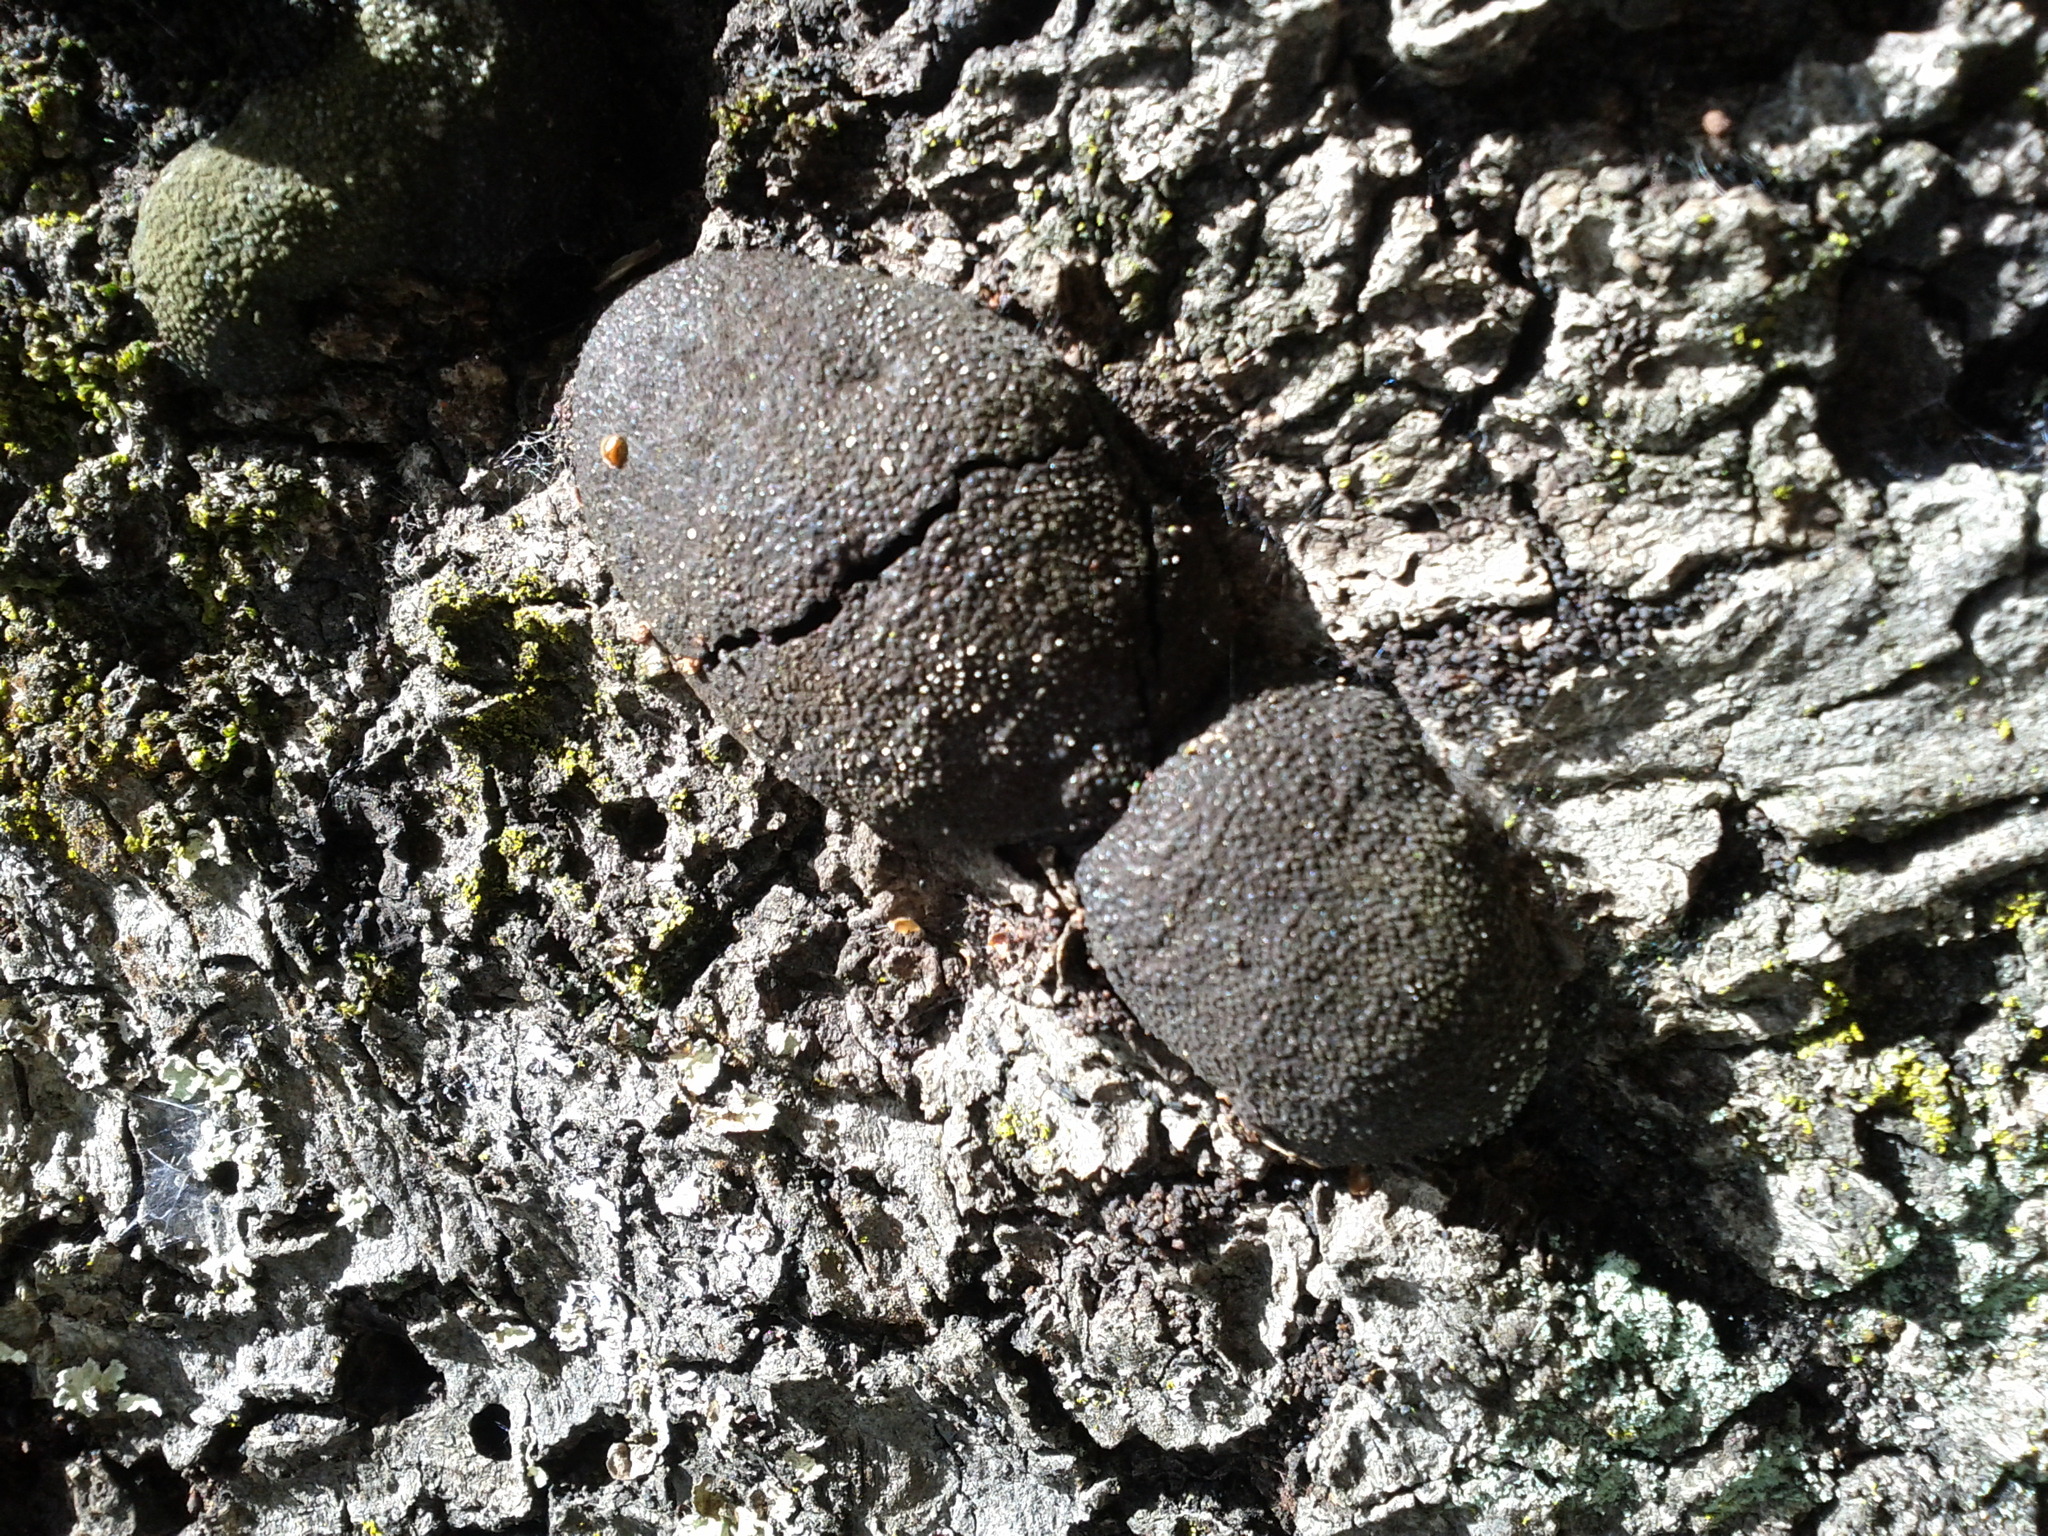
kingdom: Fungi
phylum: Ascomycota
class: Sordariomycetes
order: Xylariales
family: Hypoxylaceae
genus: Annulohypoxylon
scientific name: Annulohypoxylon thouarsianum
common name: Cramp balls
